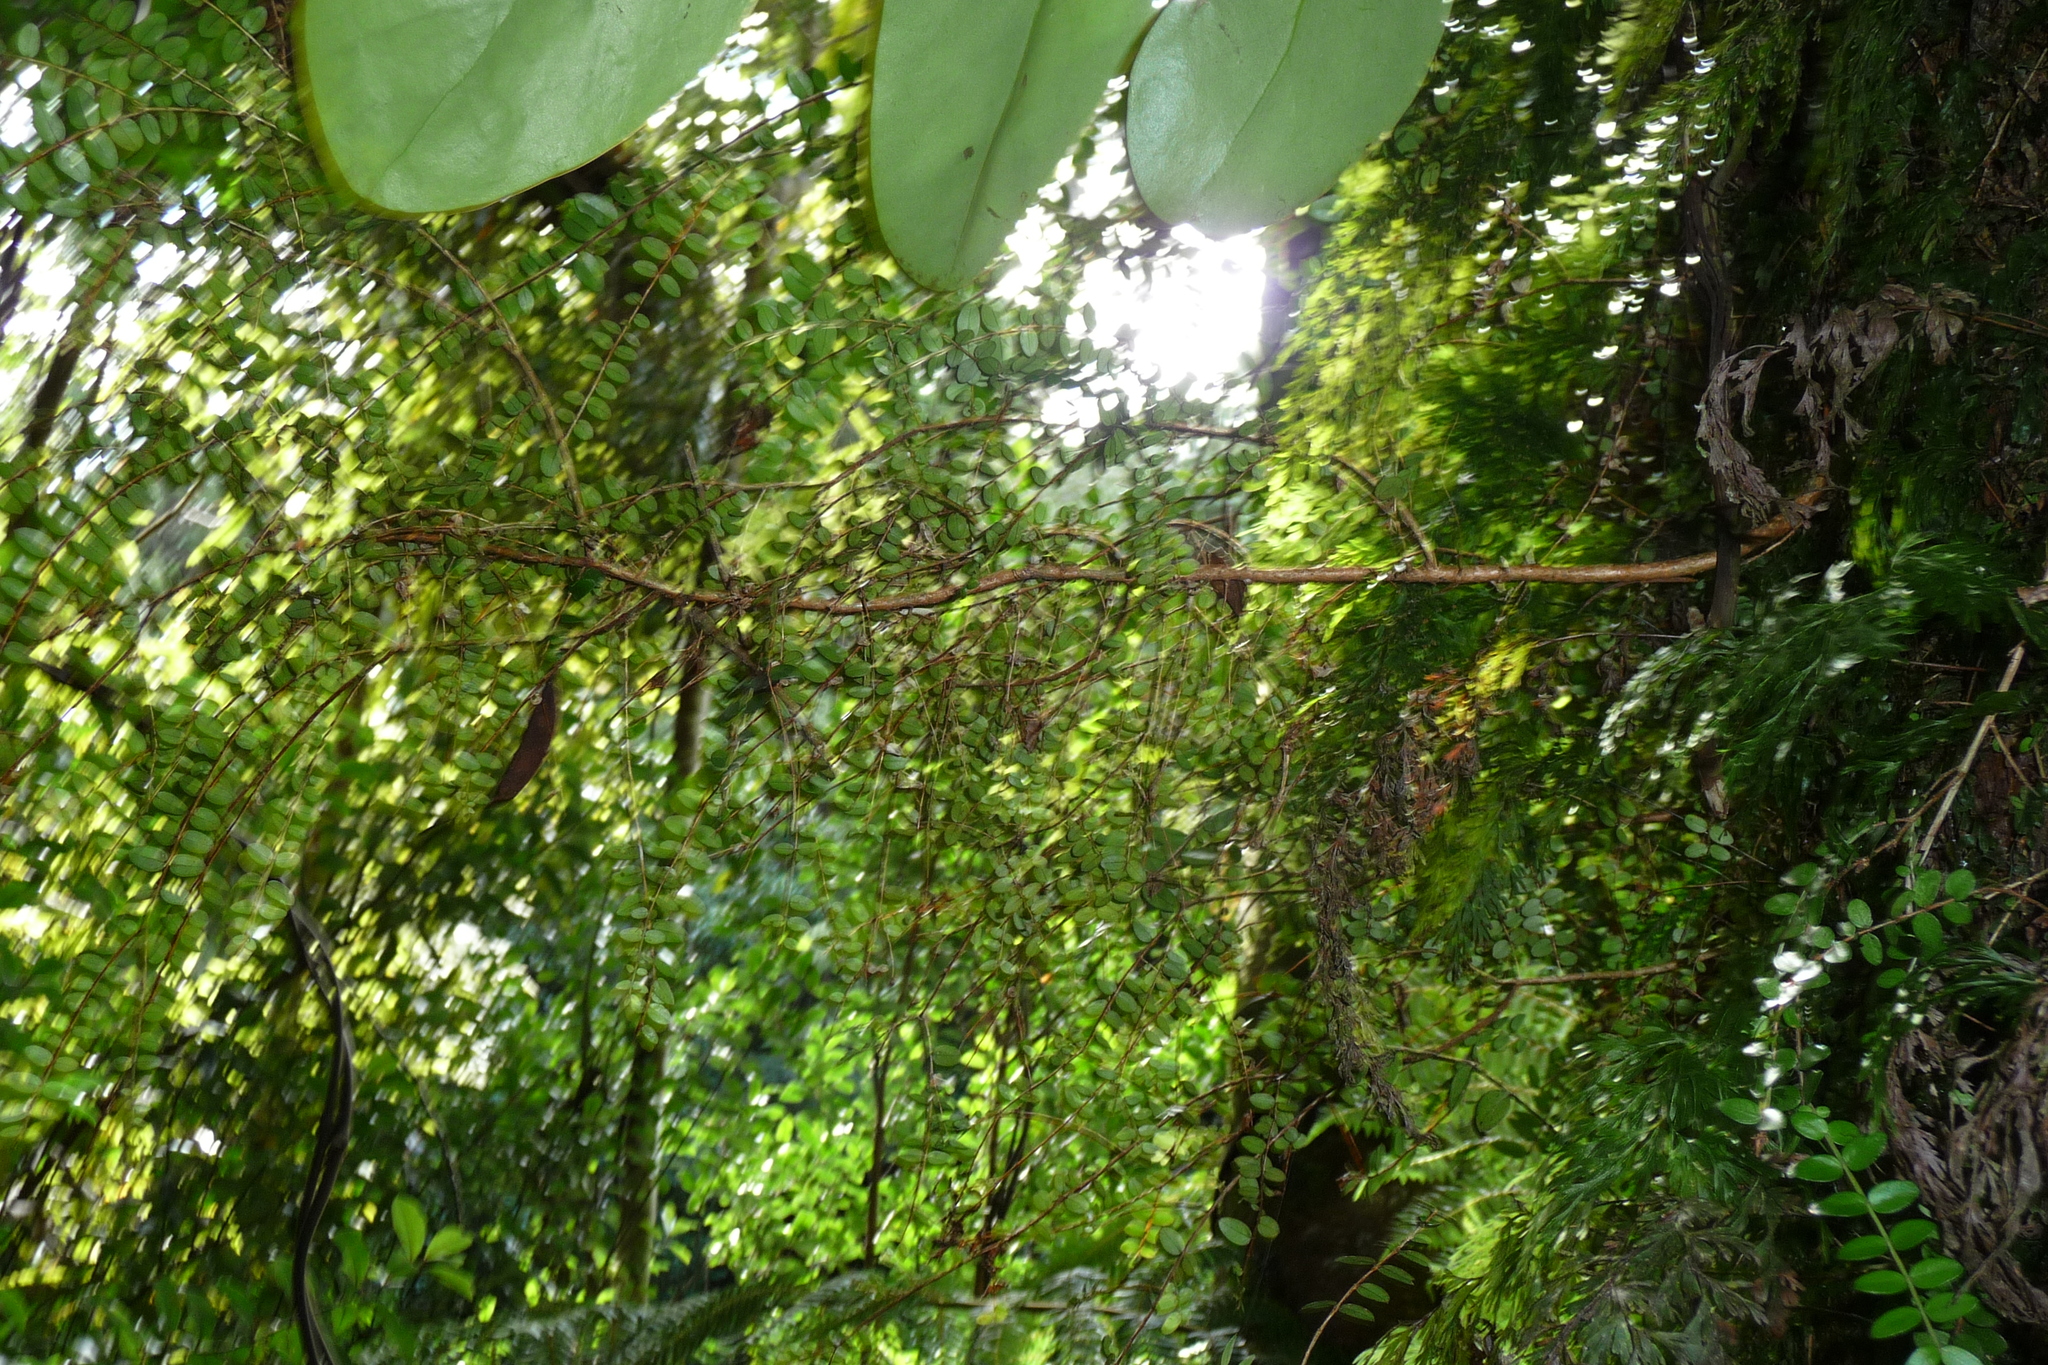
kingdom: Plantae
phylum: Tracheophyta
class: Magnoliopsida
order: Myrtales
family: Myrtaceae
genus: Metrosideros
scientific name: Metrosideros diffusa
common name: Small ratavine
